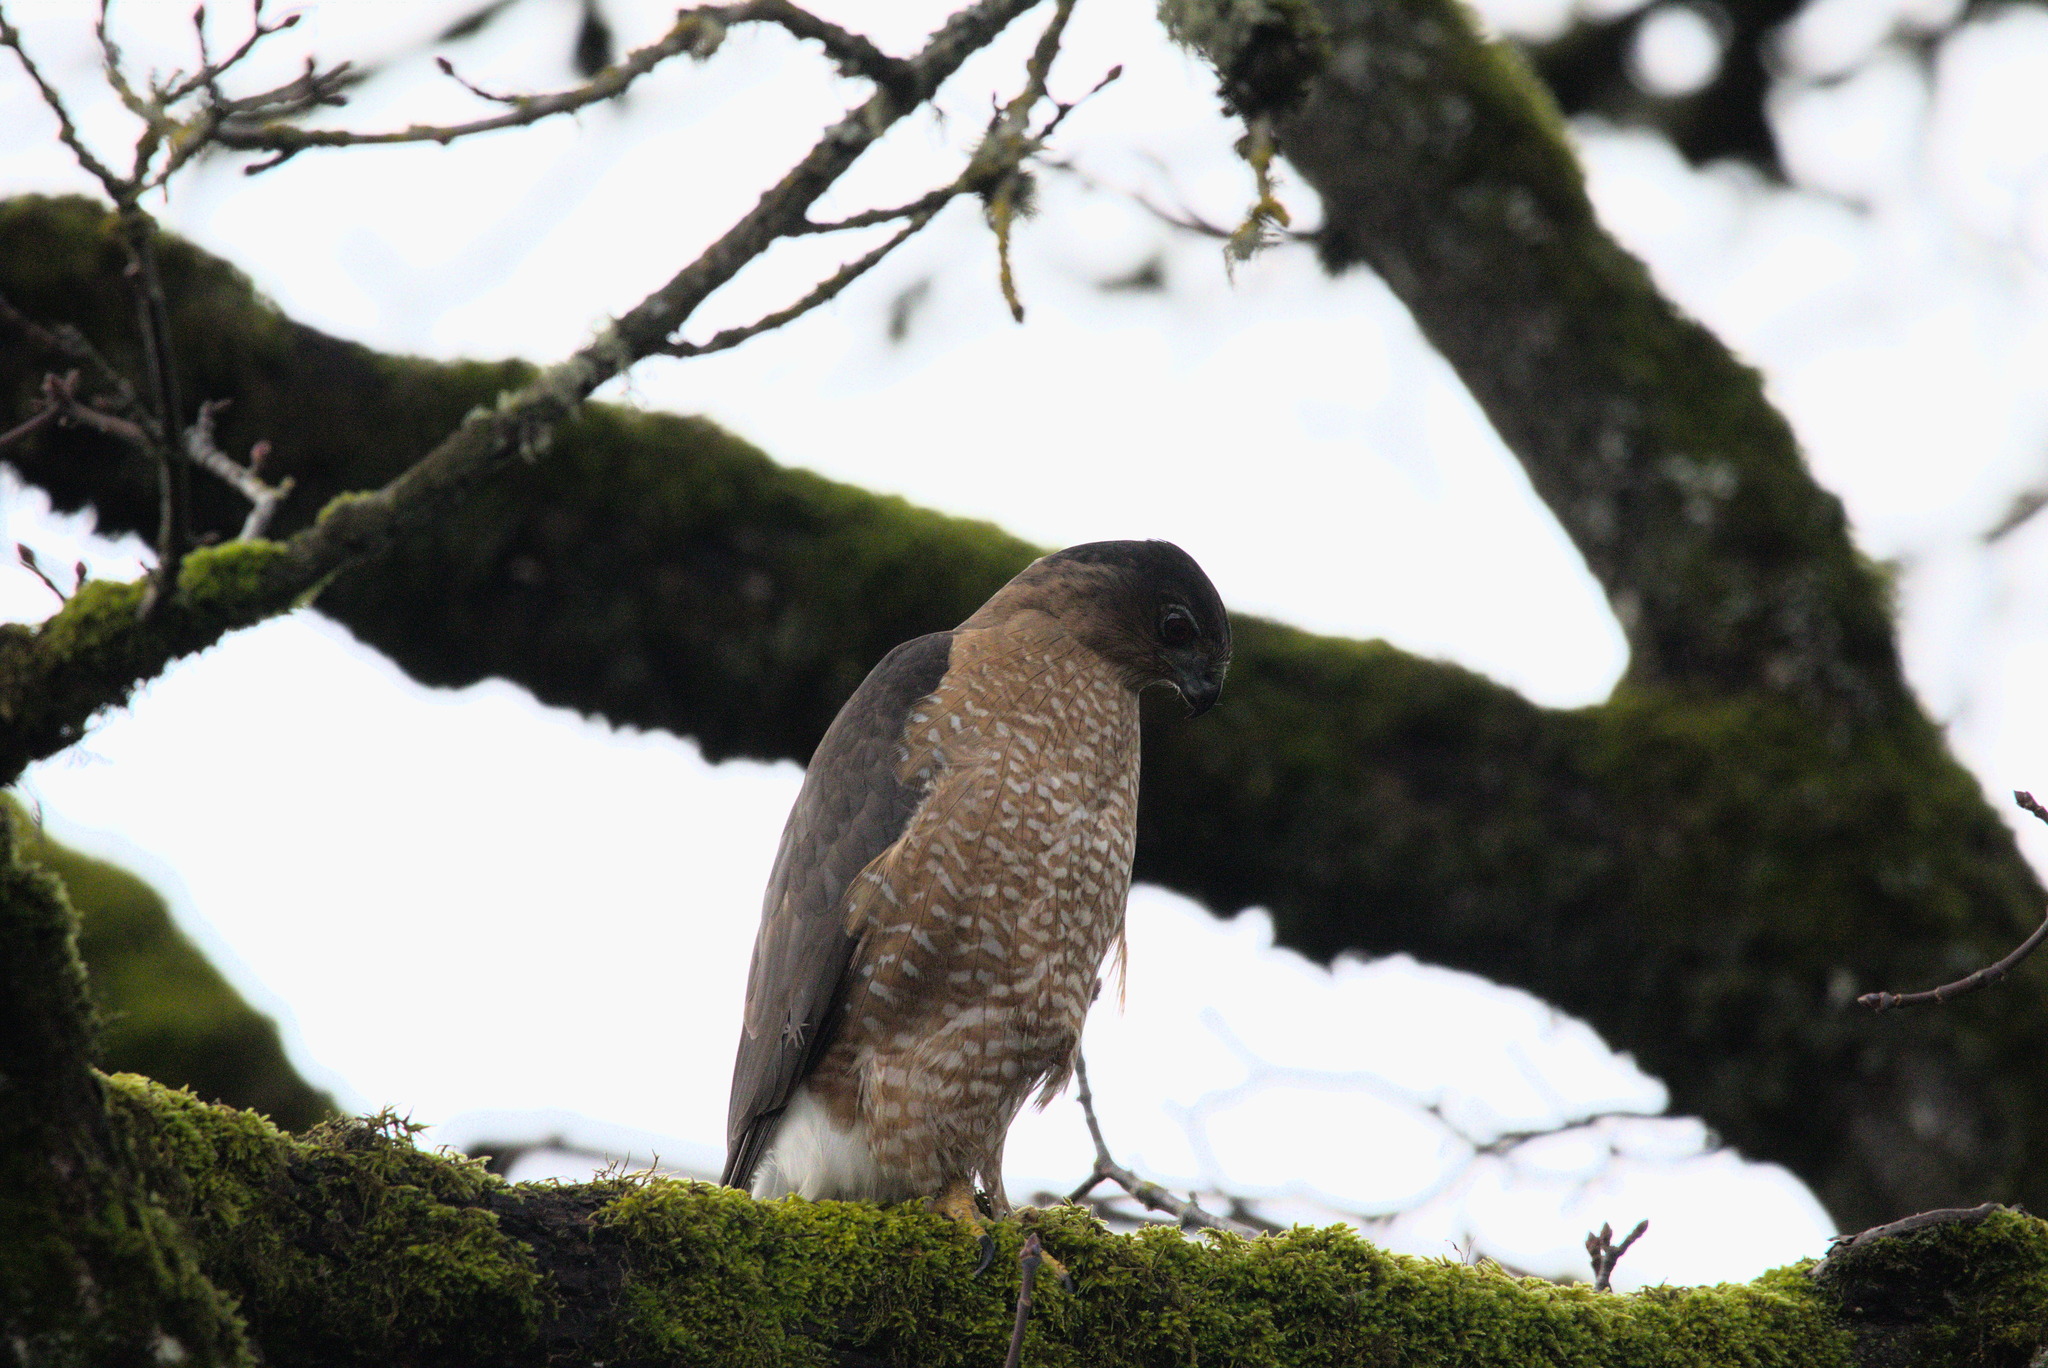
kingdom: Animalia
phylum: Chordata
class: Aves
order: Accipitriformes
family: Accipitridae
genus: Accipiter
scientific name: Accipiter cooperii
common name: Cooper's hawk
